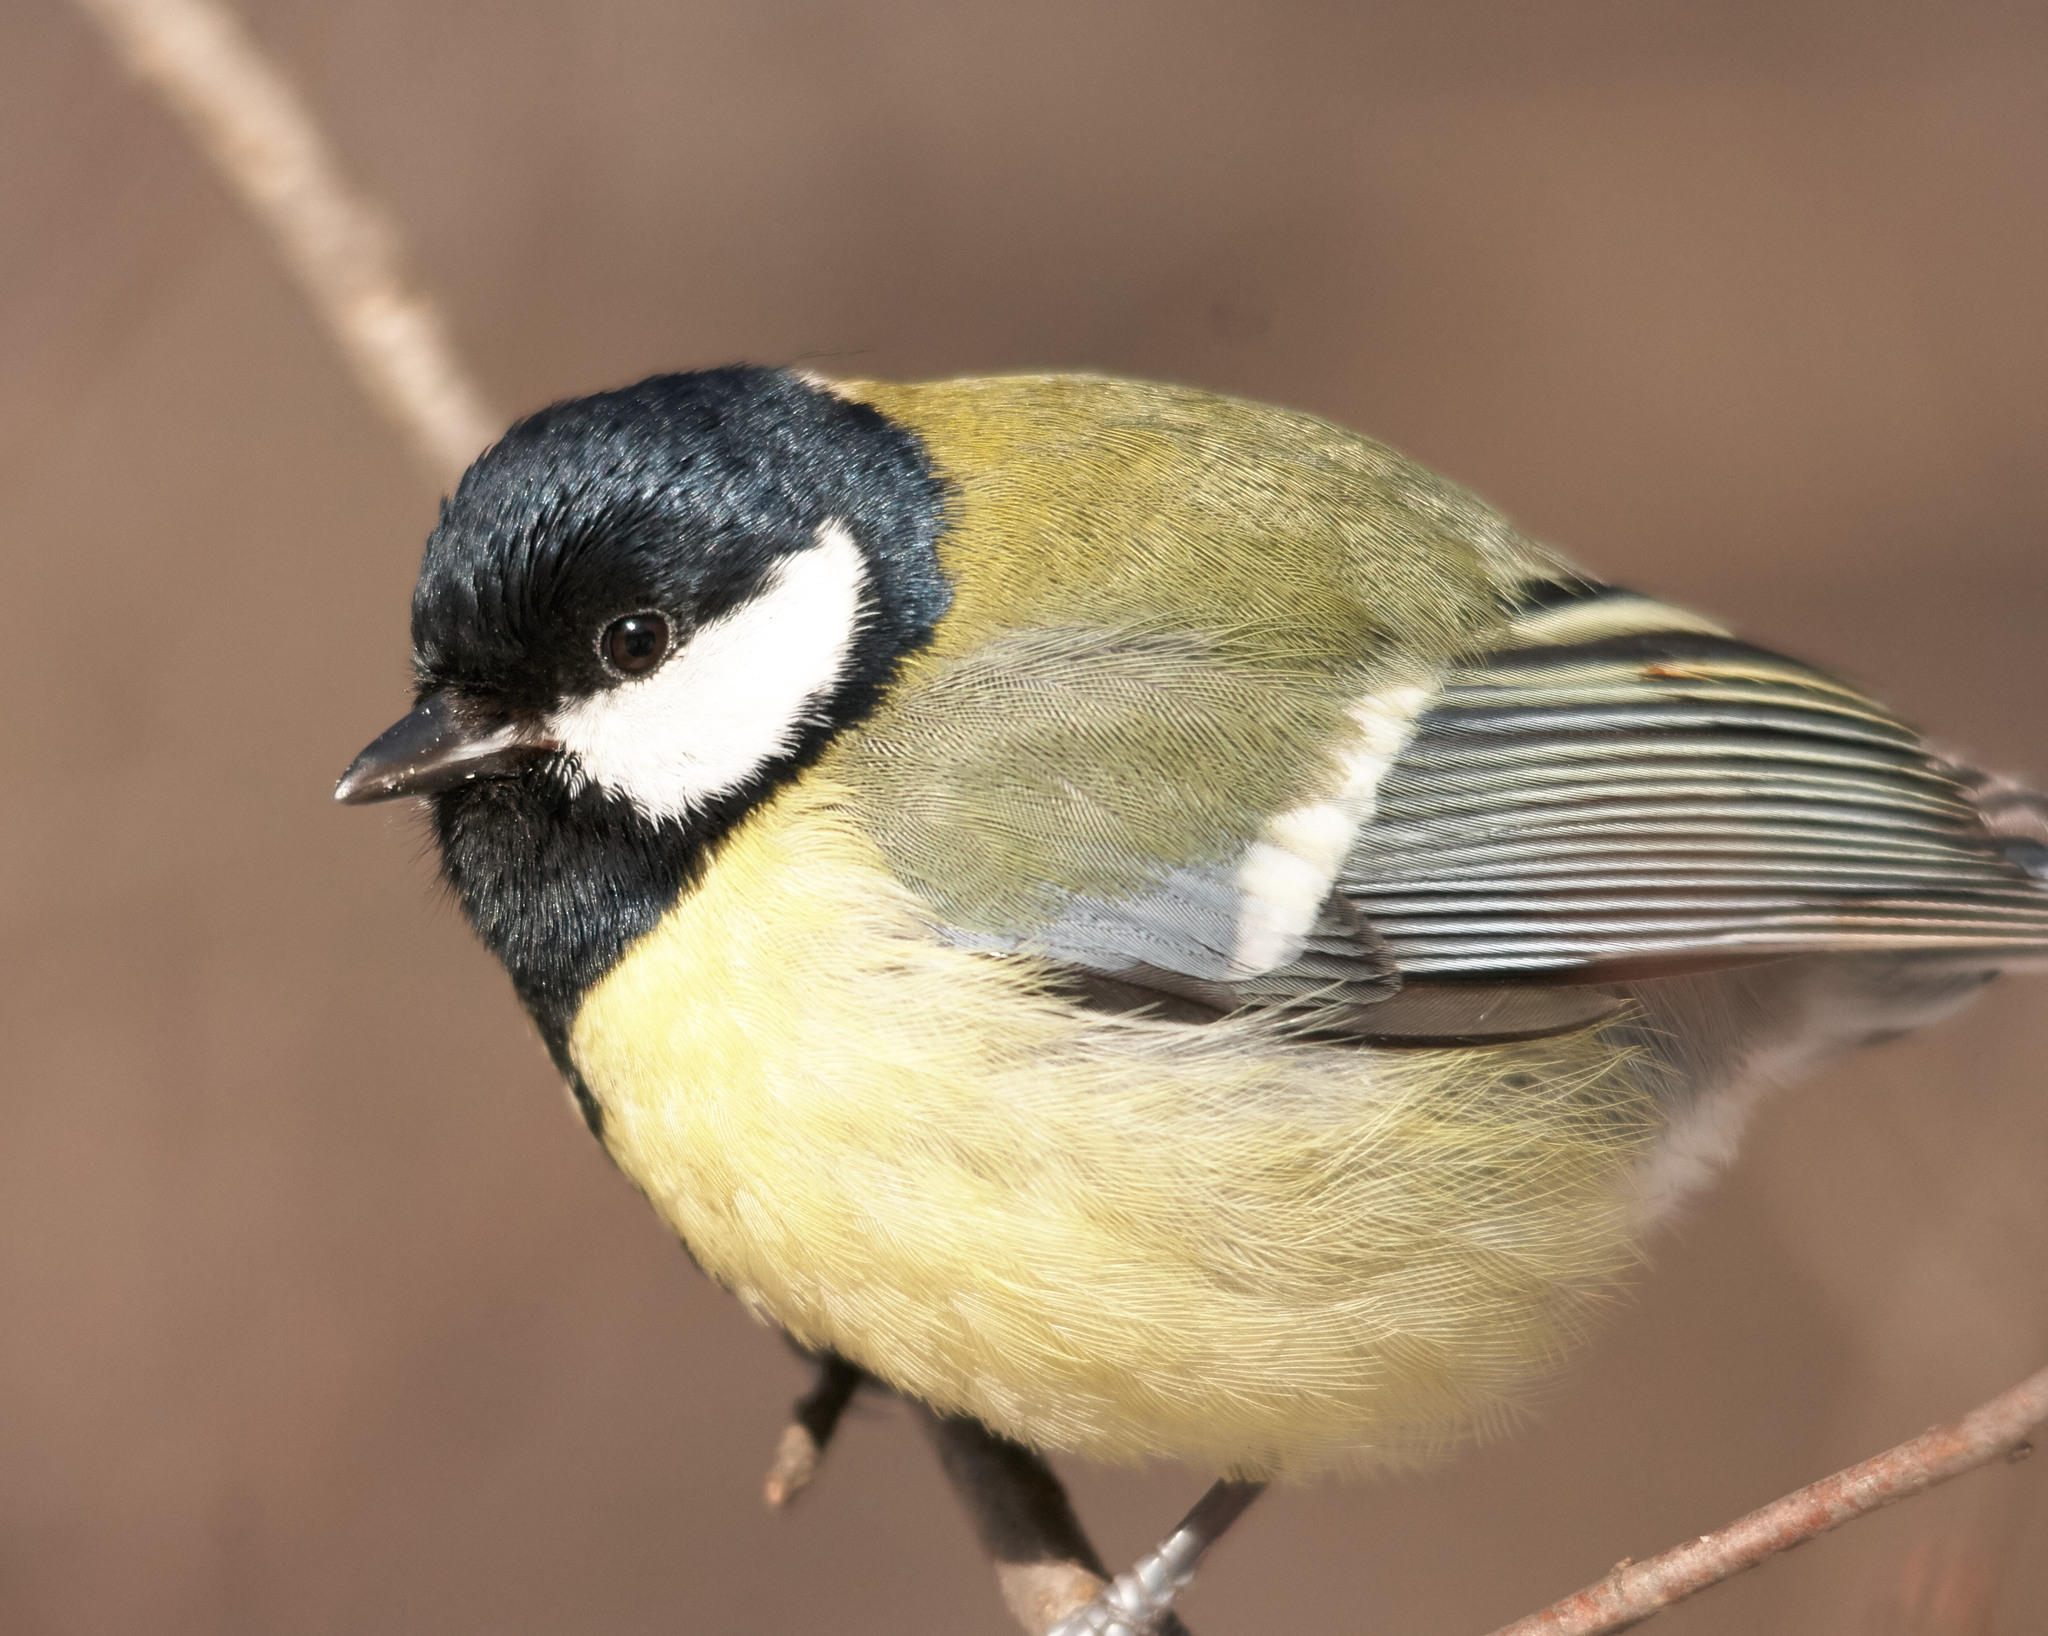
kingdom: Animalia
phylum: Chordata
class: Aves
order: Passeriformes
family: Paridae
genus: Parus
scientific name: Parus major
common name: Great tit
